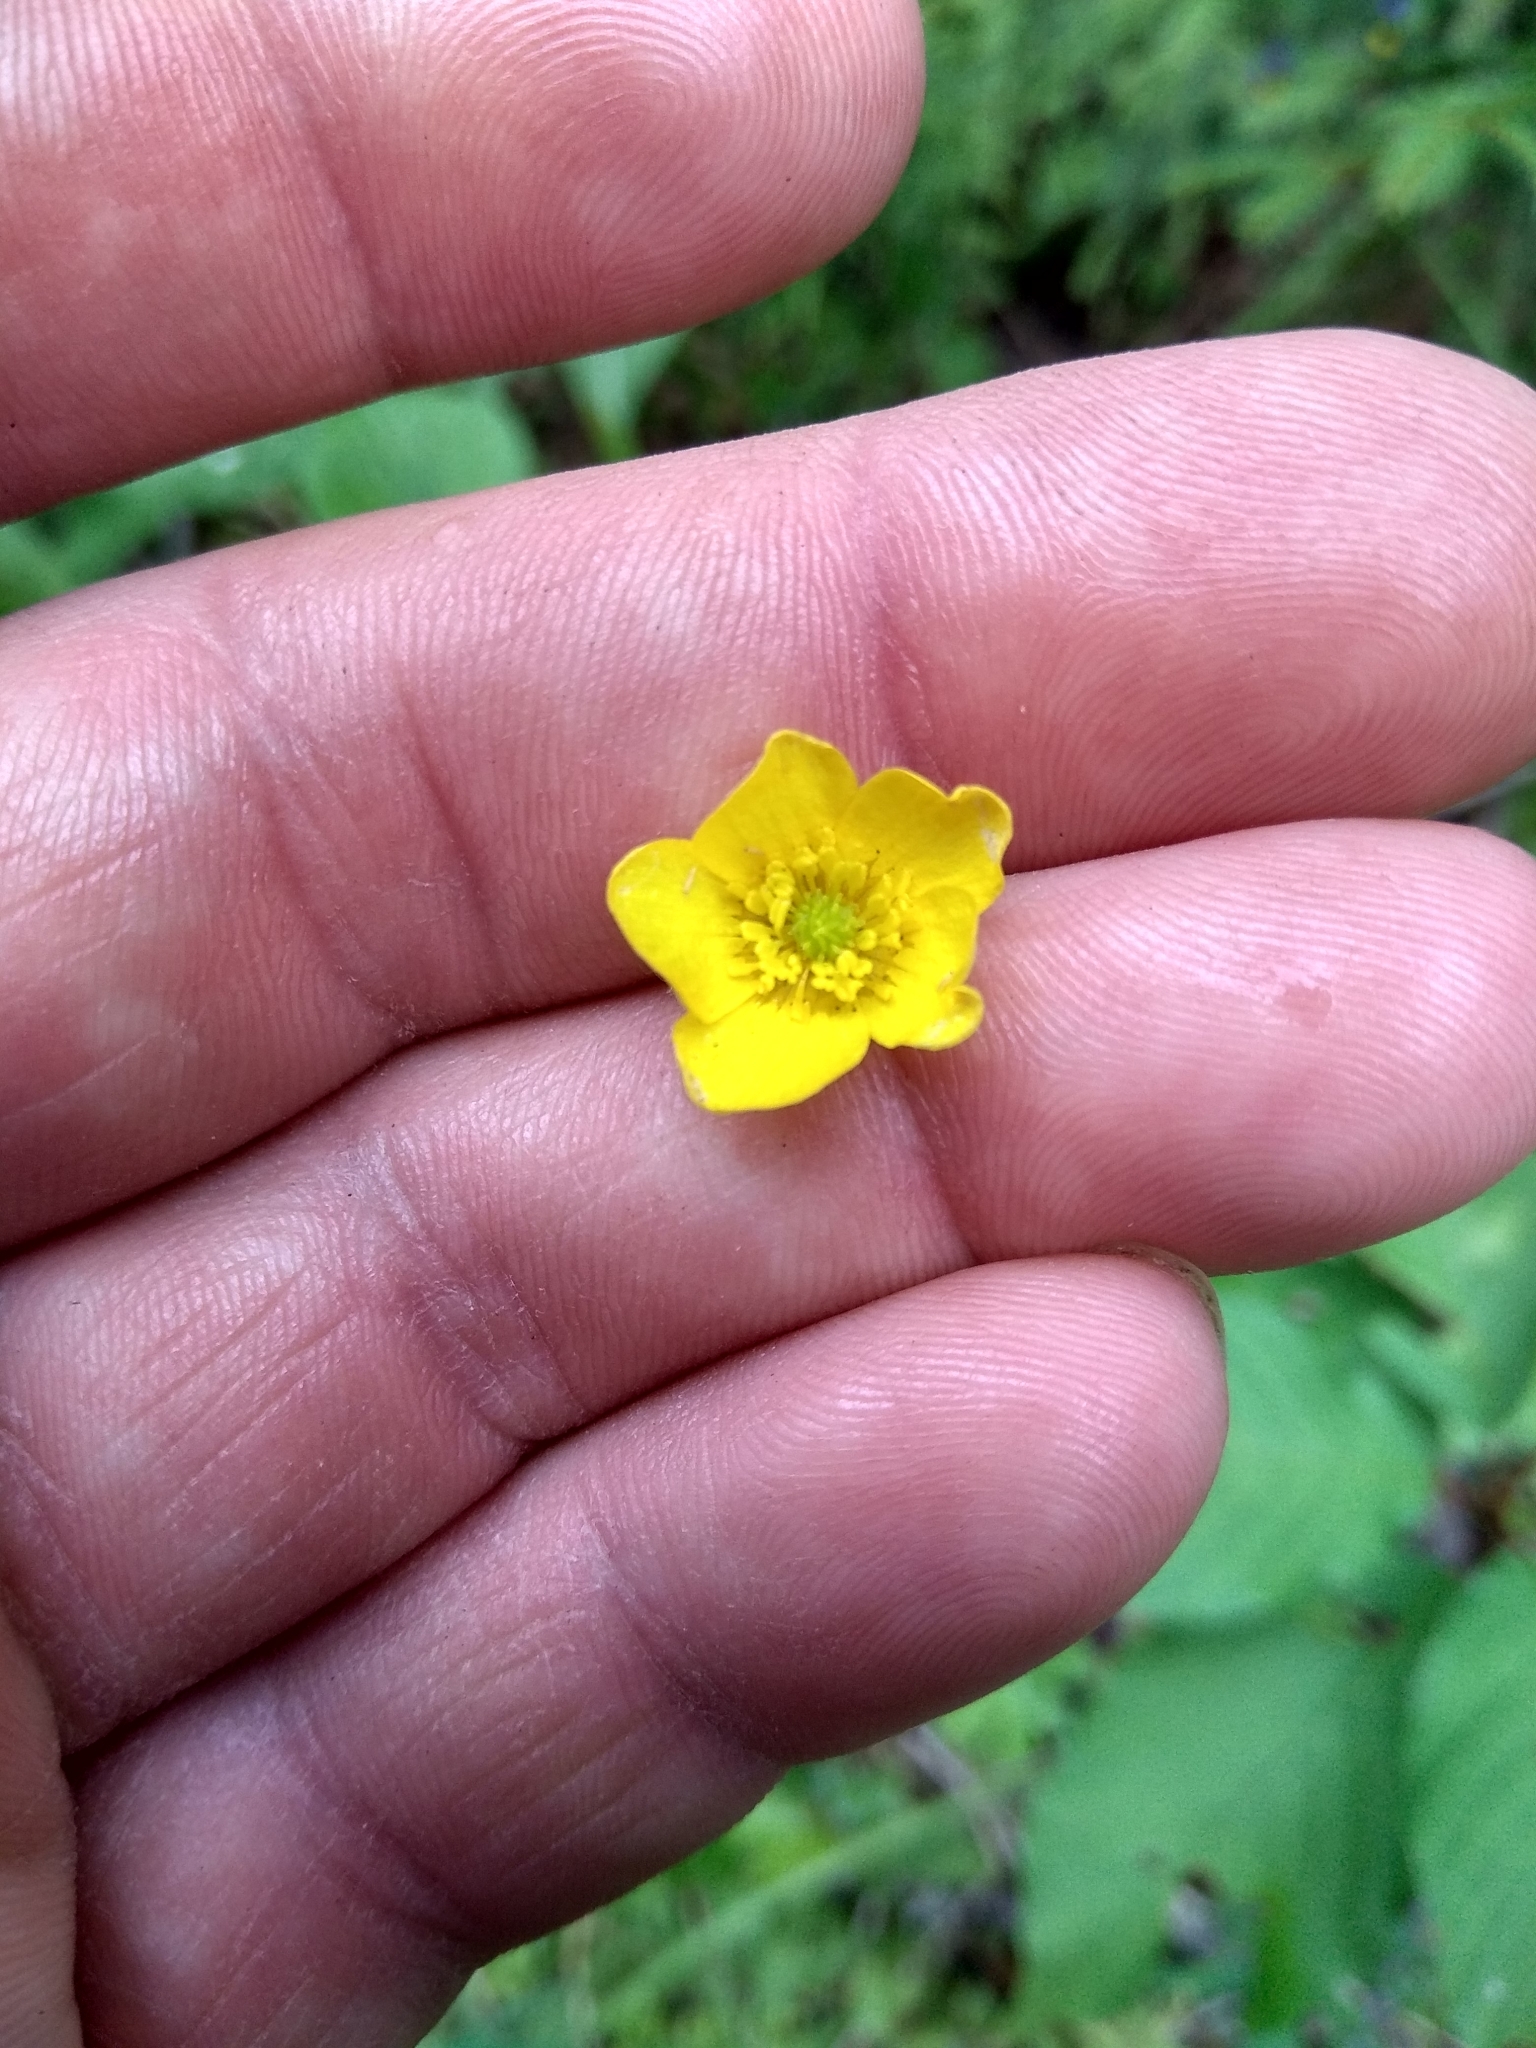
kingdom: Plantae
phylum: Tracheophyta
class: Magnoliopsida
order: Ranunculales
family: Ranunculaceae
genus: Ranunculus
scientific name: Ranunculus acris
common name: Meadow buttercup
